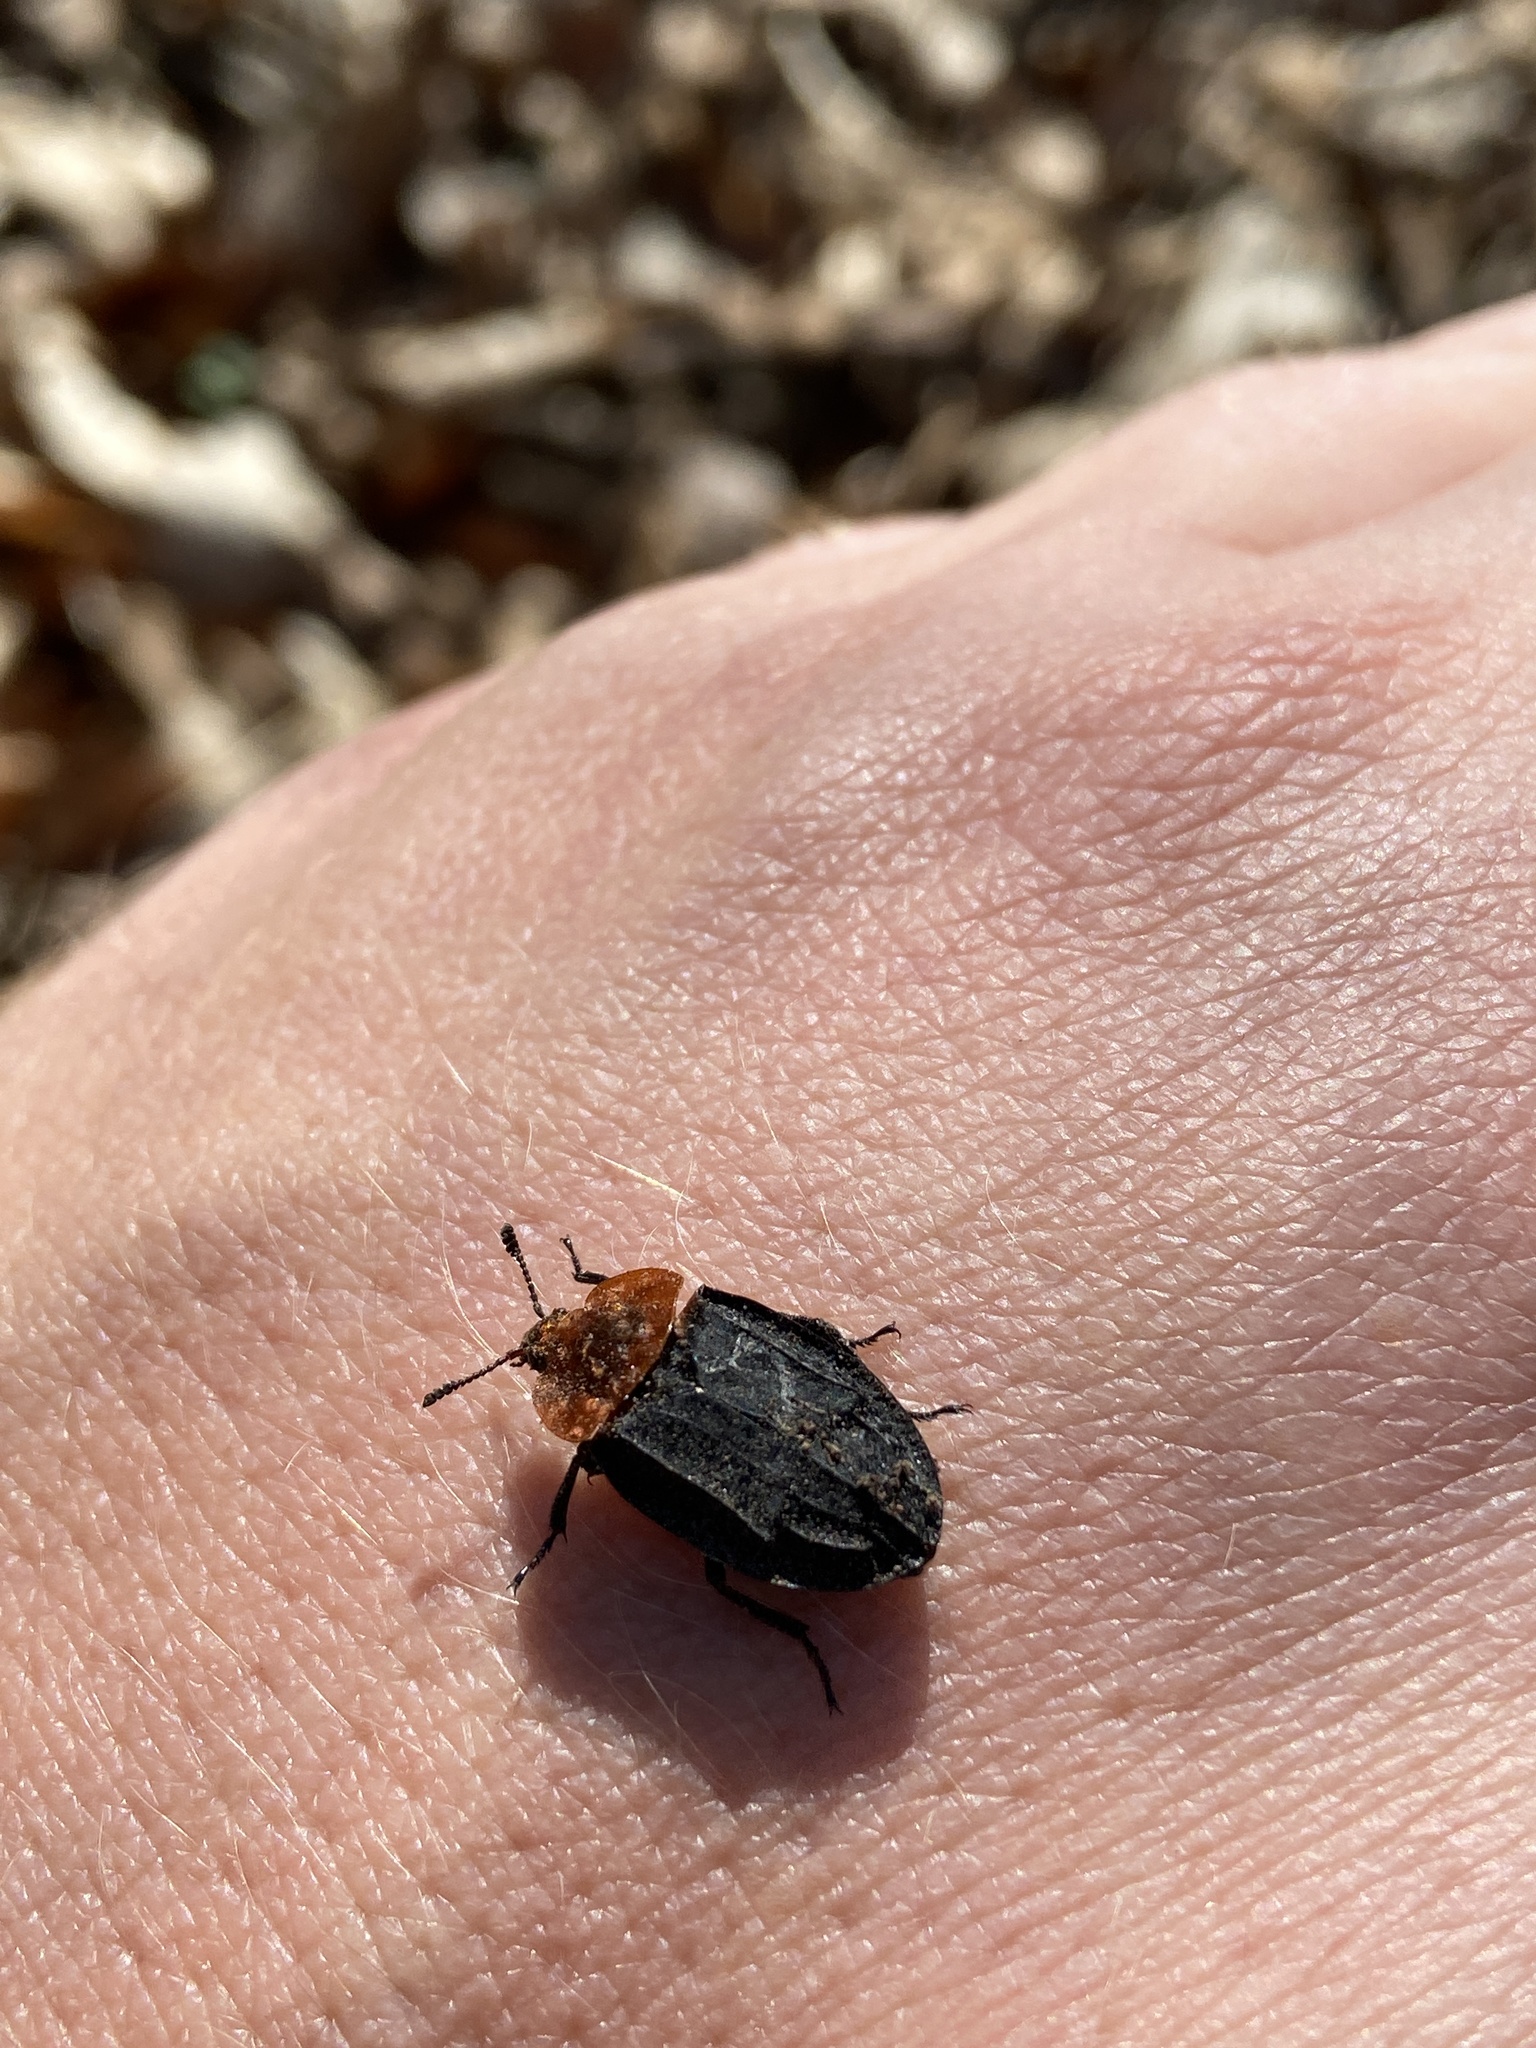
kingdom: Animalia
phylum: Arthropoda
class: Insecta
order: Coleoptera
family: Staphylinidae
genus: Oiceoptoma
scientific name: Oiceoptoma thoracicum
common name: Red-breasted carrion beetle
